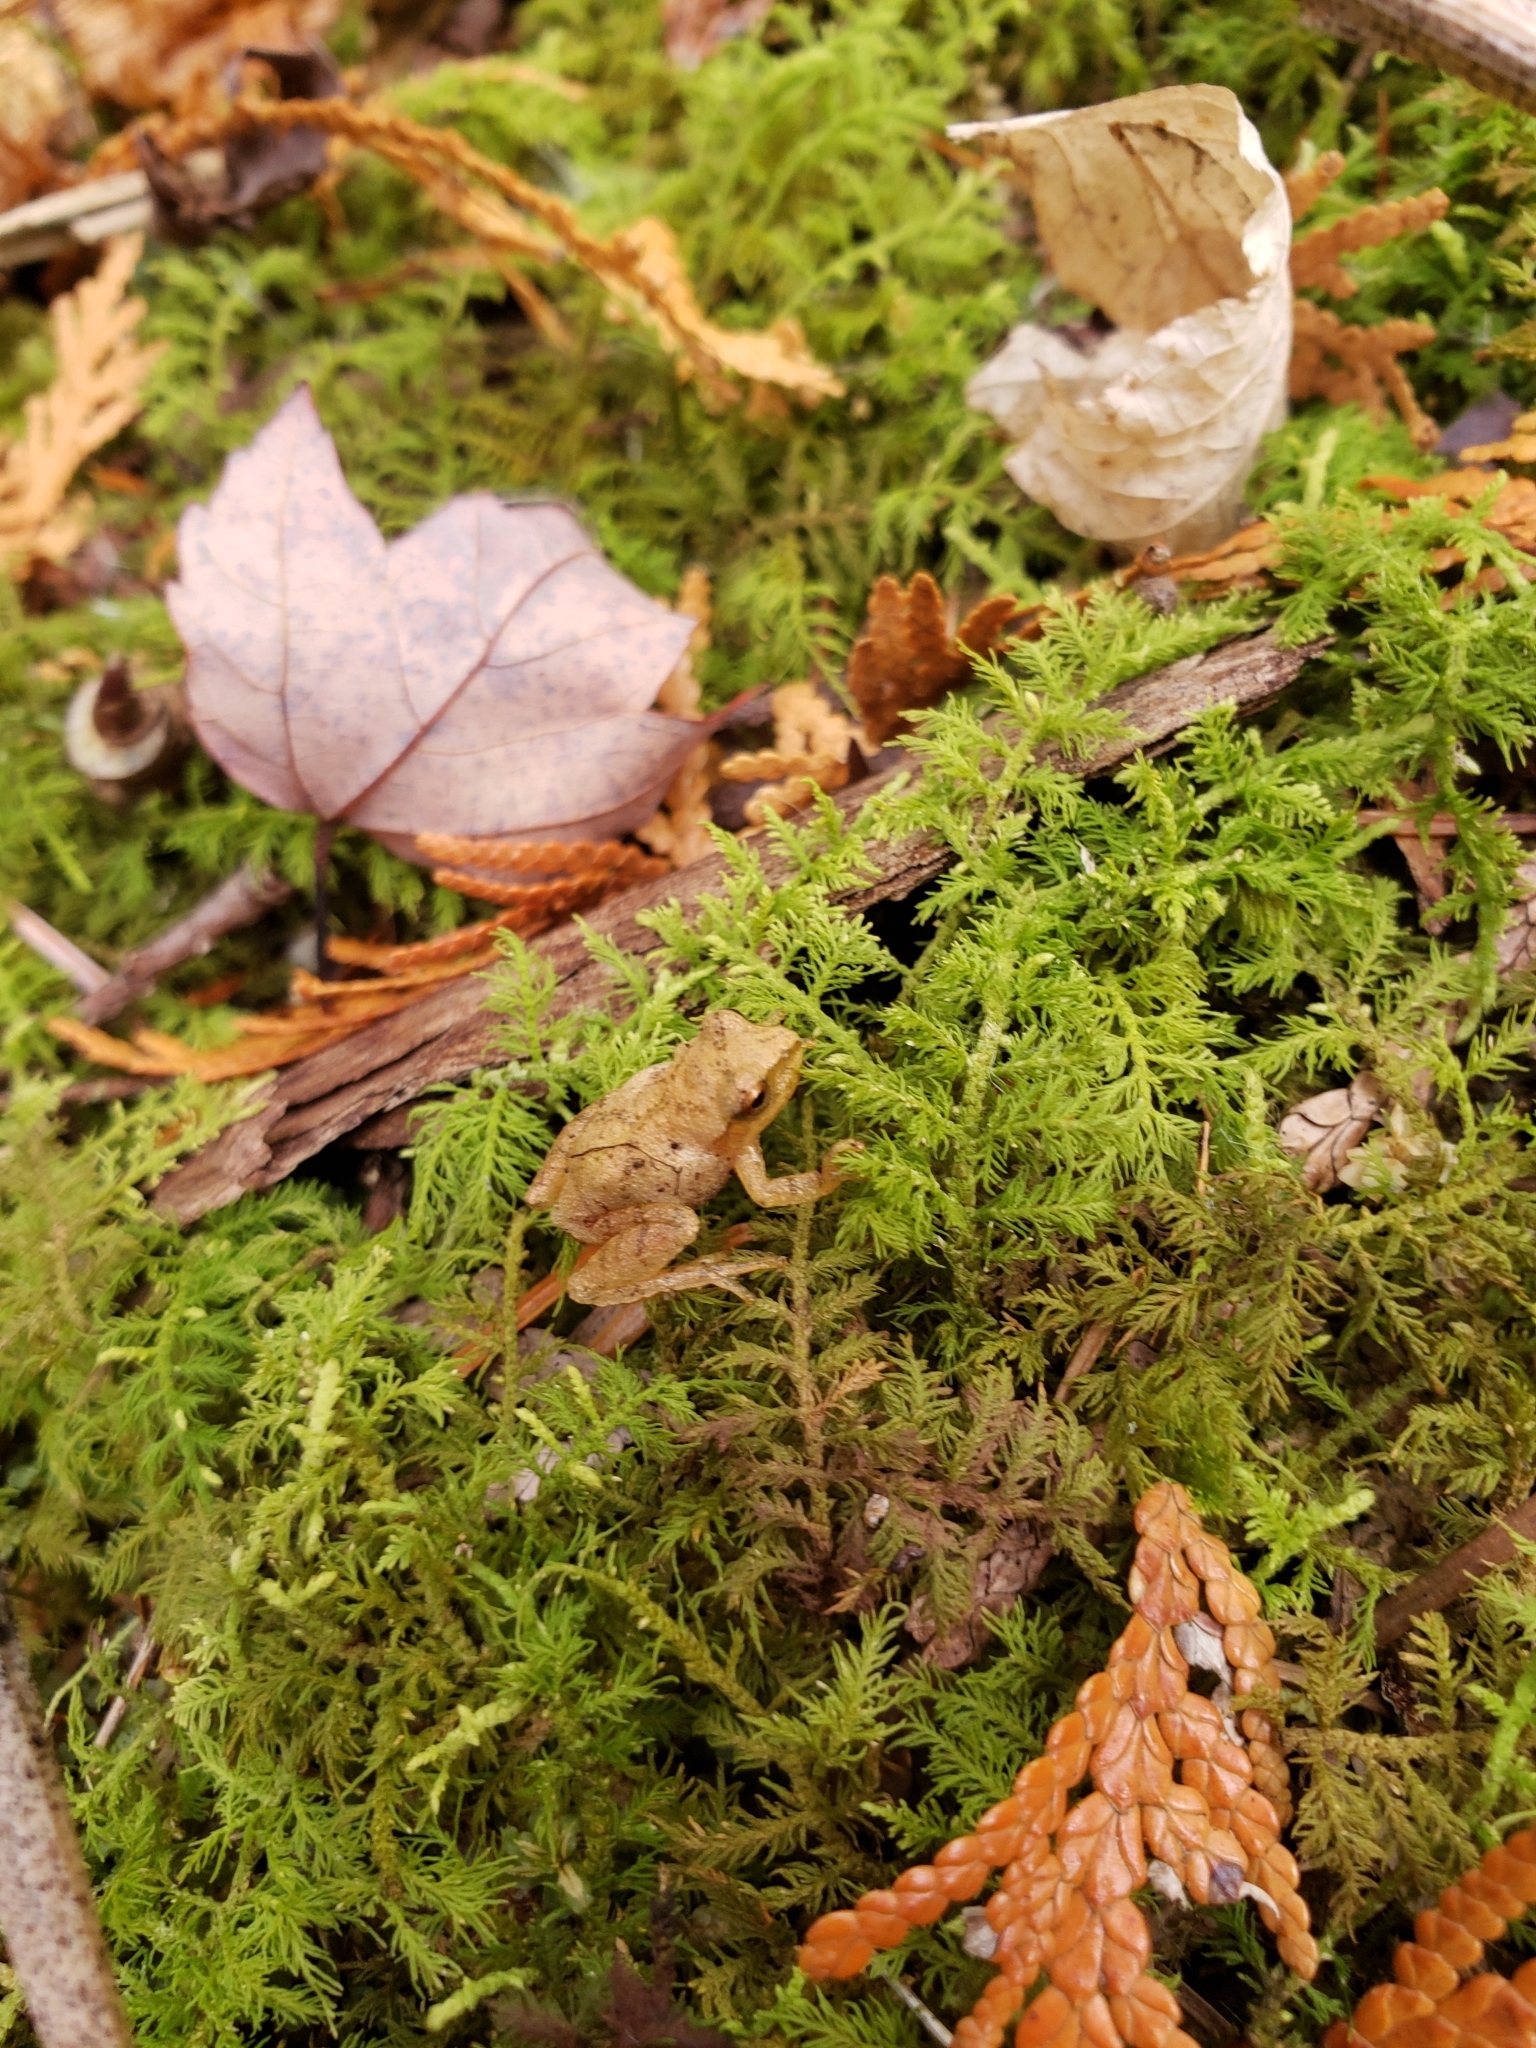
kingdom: Animalia
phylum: Chordata
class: Amphibia
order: Anura
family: Hylidae
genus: Pseudacris
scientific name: Pseudacris crucifer
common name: Spring peeper
